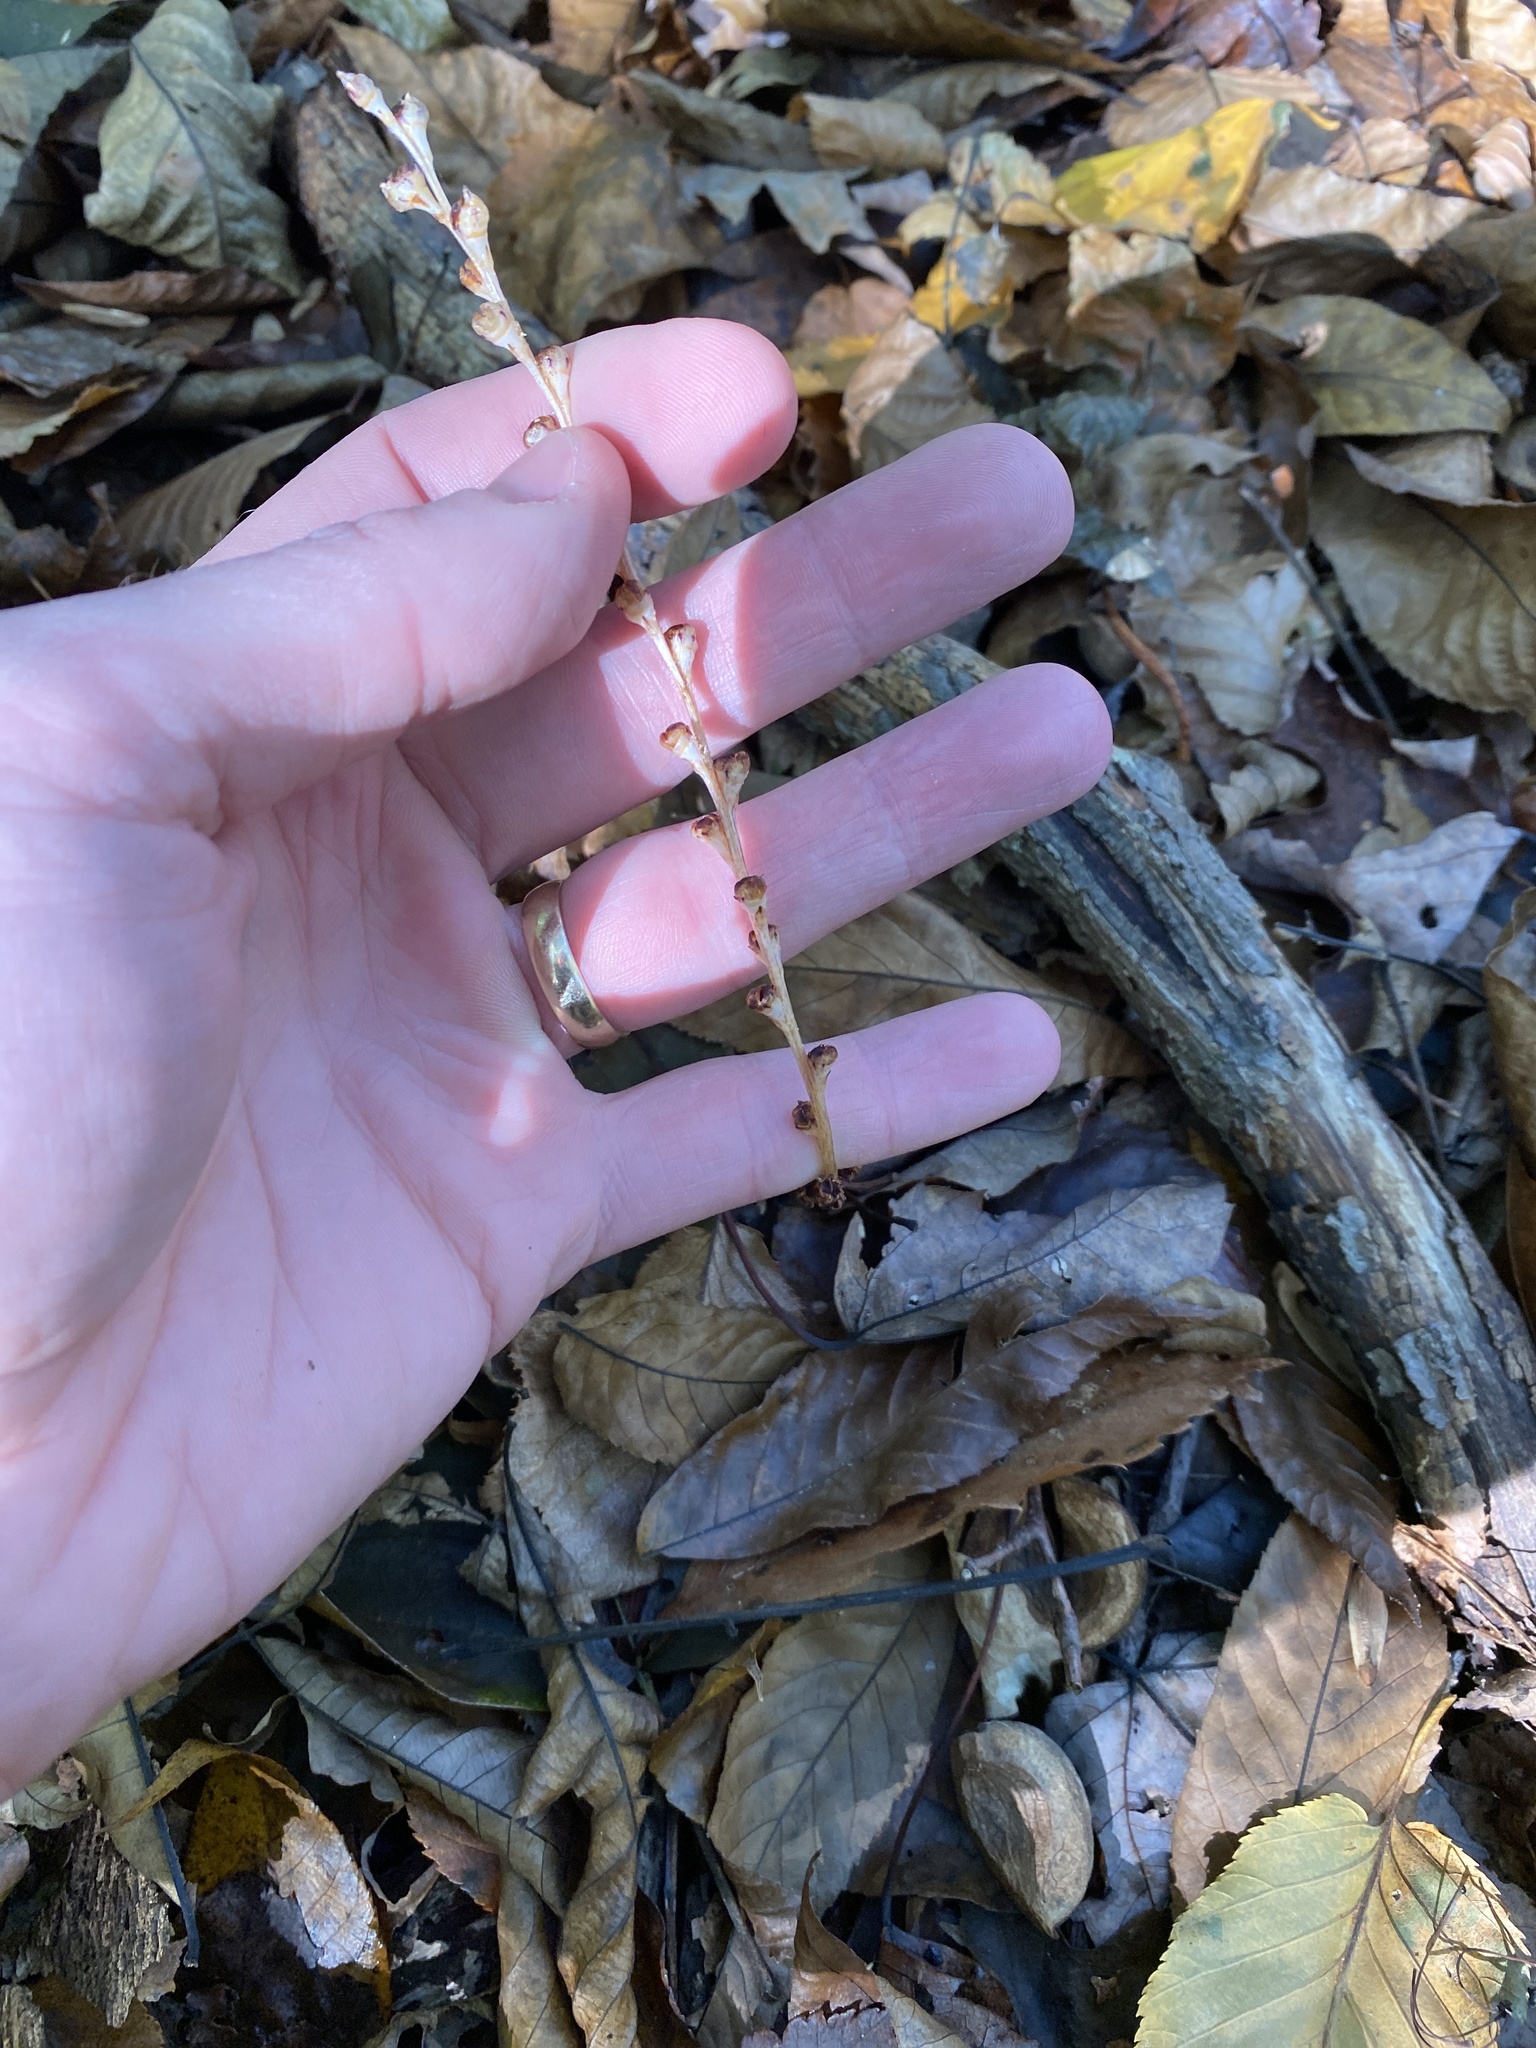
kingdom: Plantae
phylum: Tracheophyta
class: Magnoliopsida
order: Lamiales
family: Orobanchaceae
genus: Epifagus
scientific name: Epifagus virginiana
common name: Beechdrops
